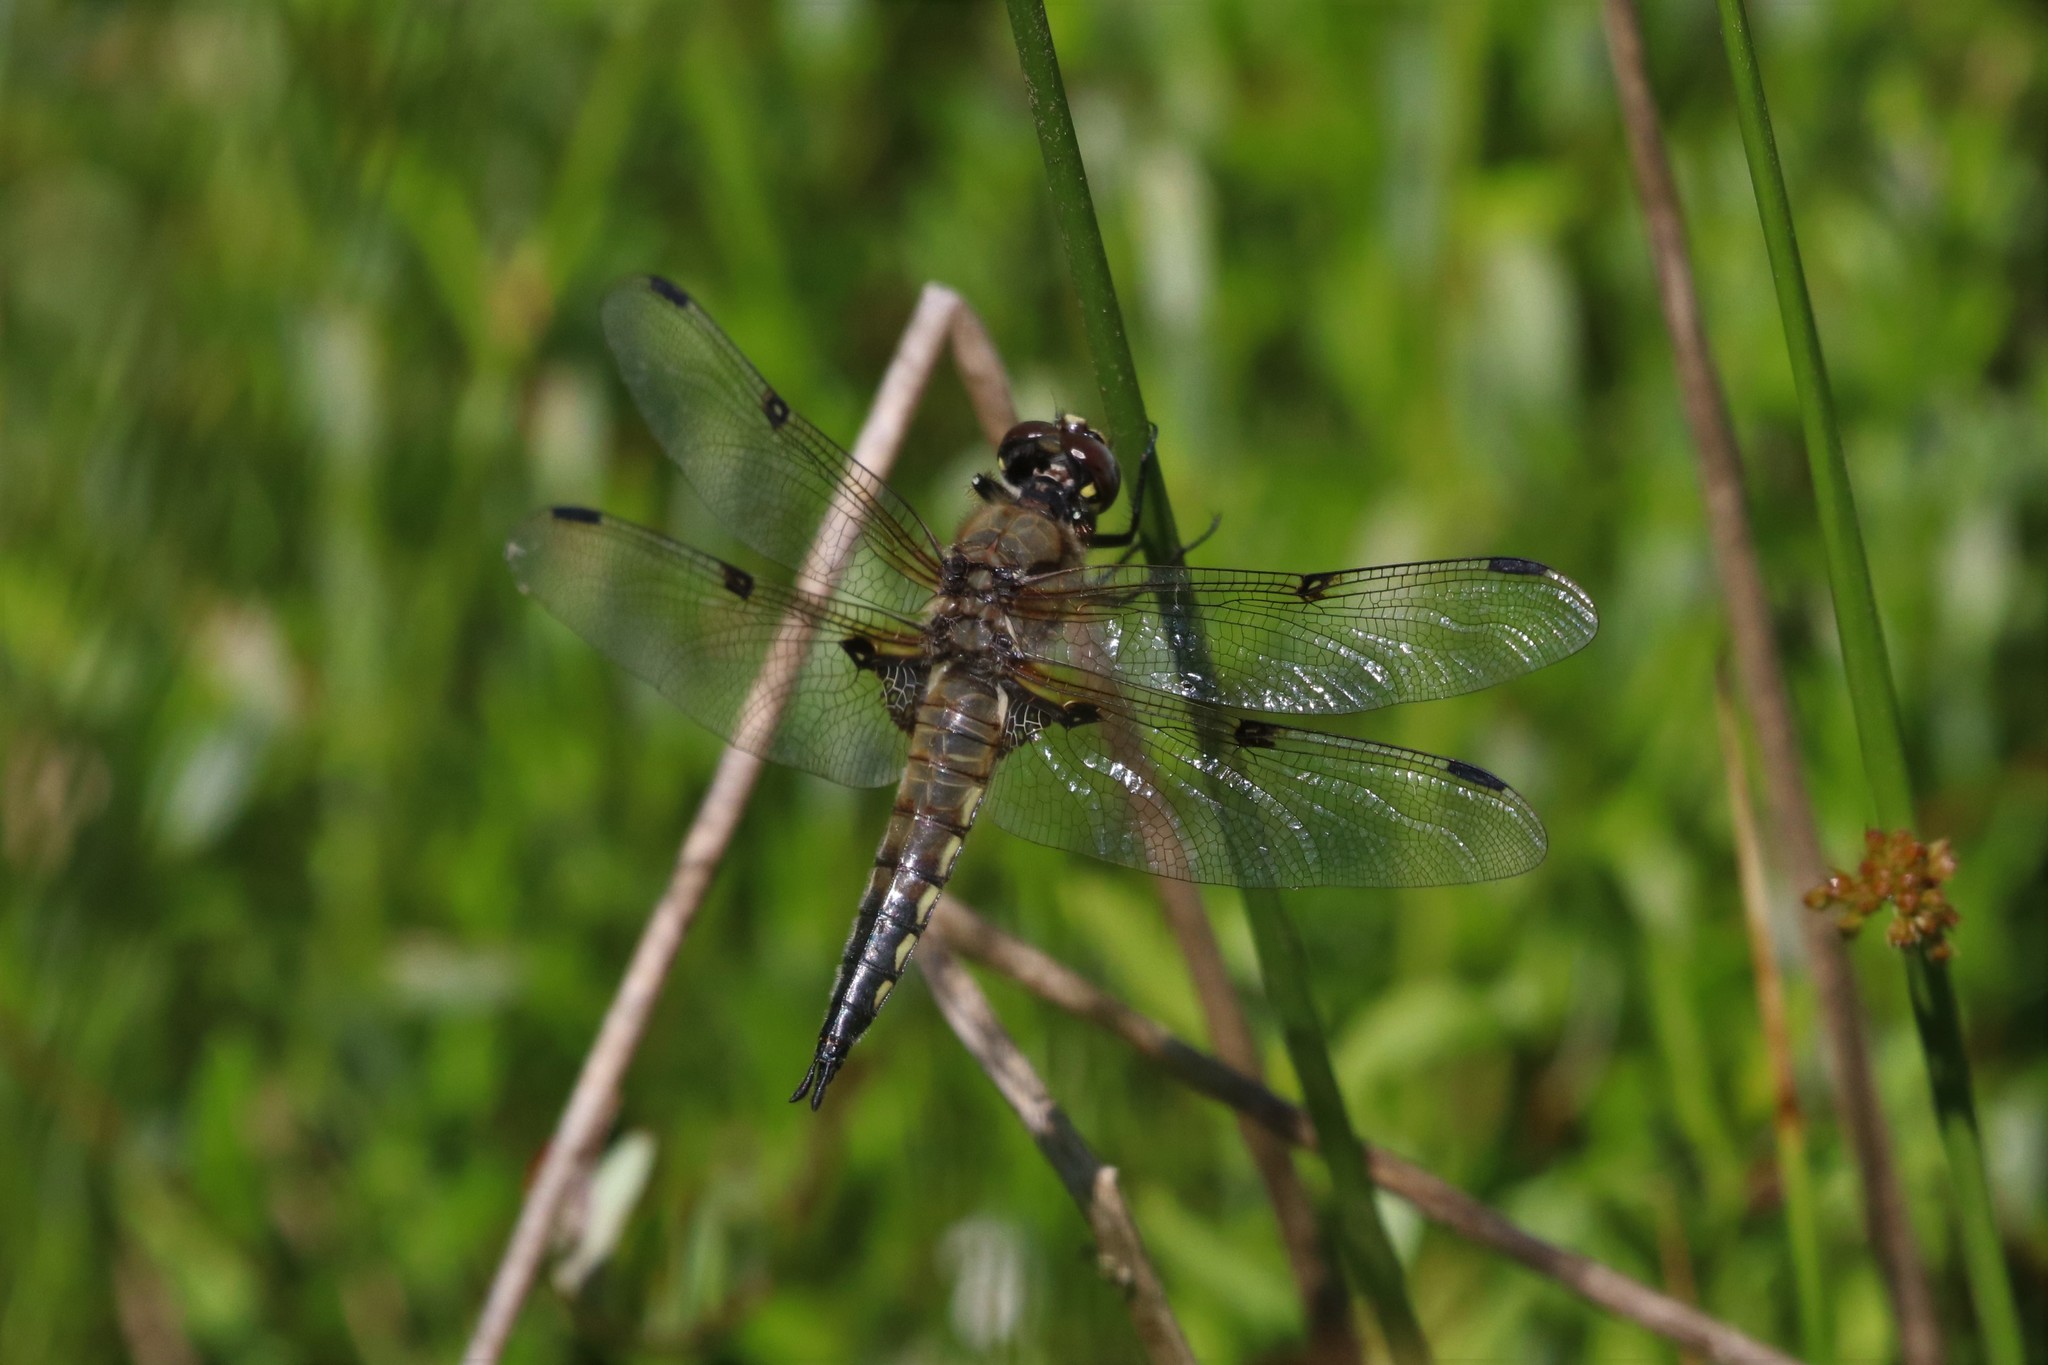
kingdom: Animalia
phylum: Arthropoda
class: Insecta
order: Odonata
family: Libellulidae
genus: Libellula
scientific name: Libellula quadrimaculata
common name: Four-spotted chaser
